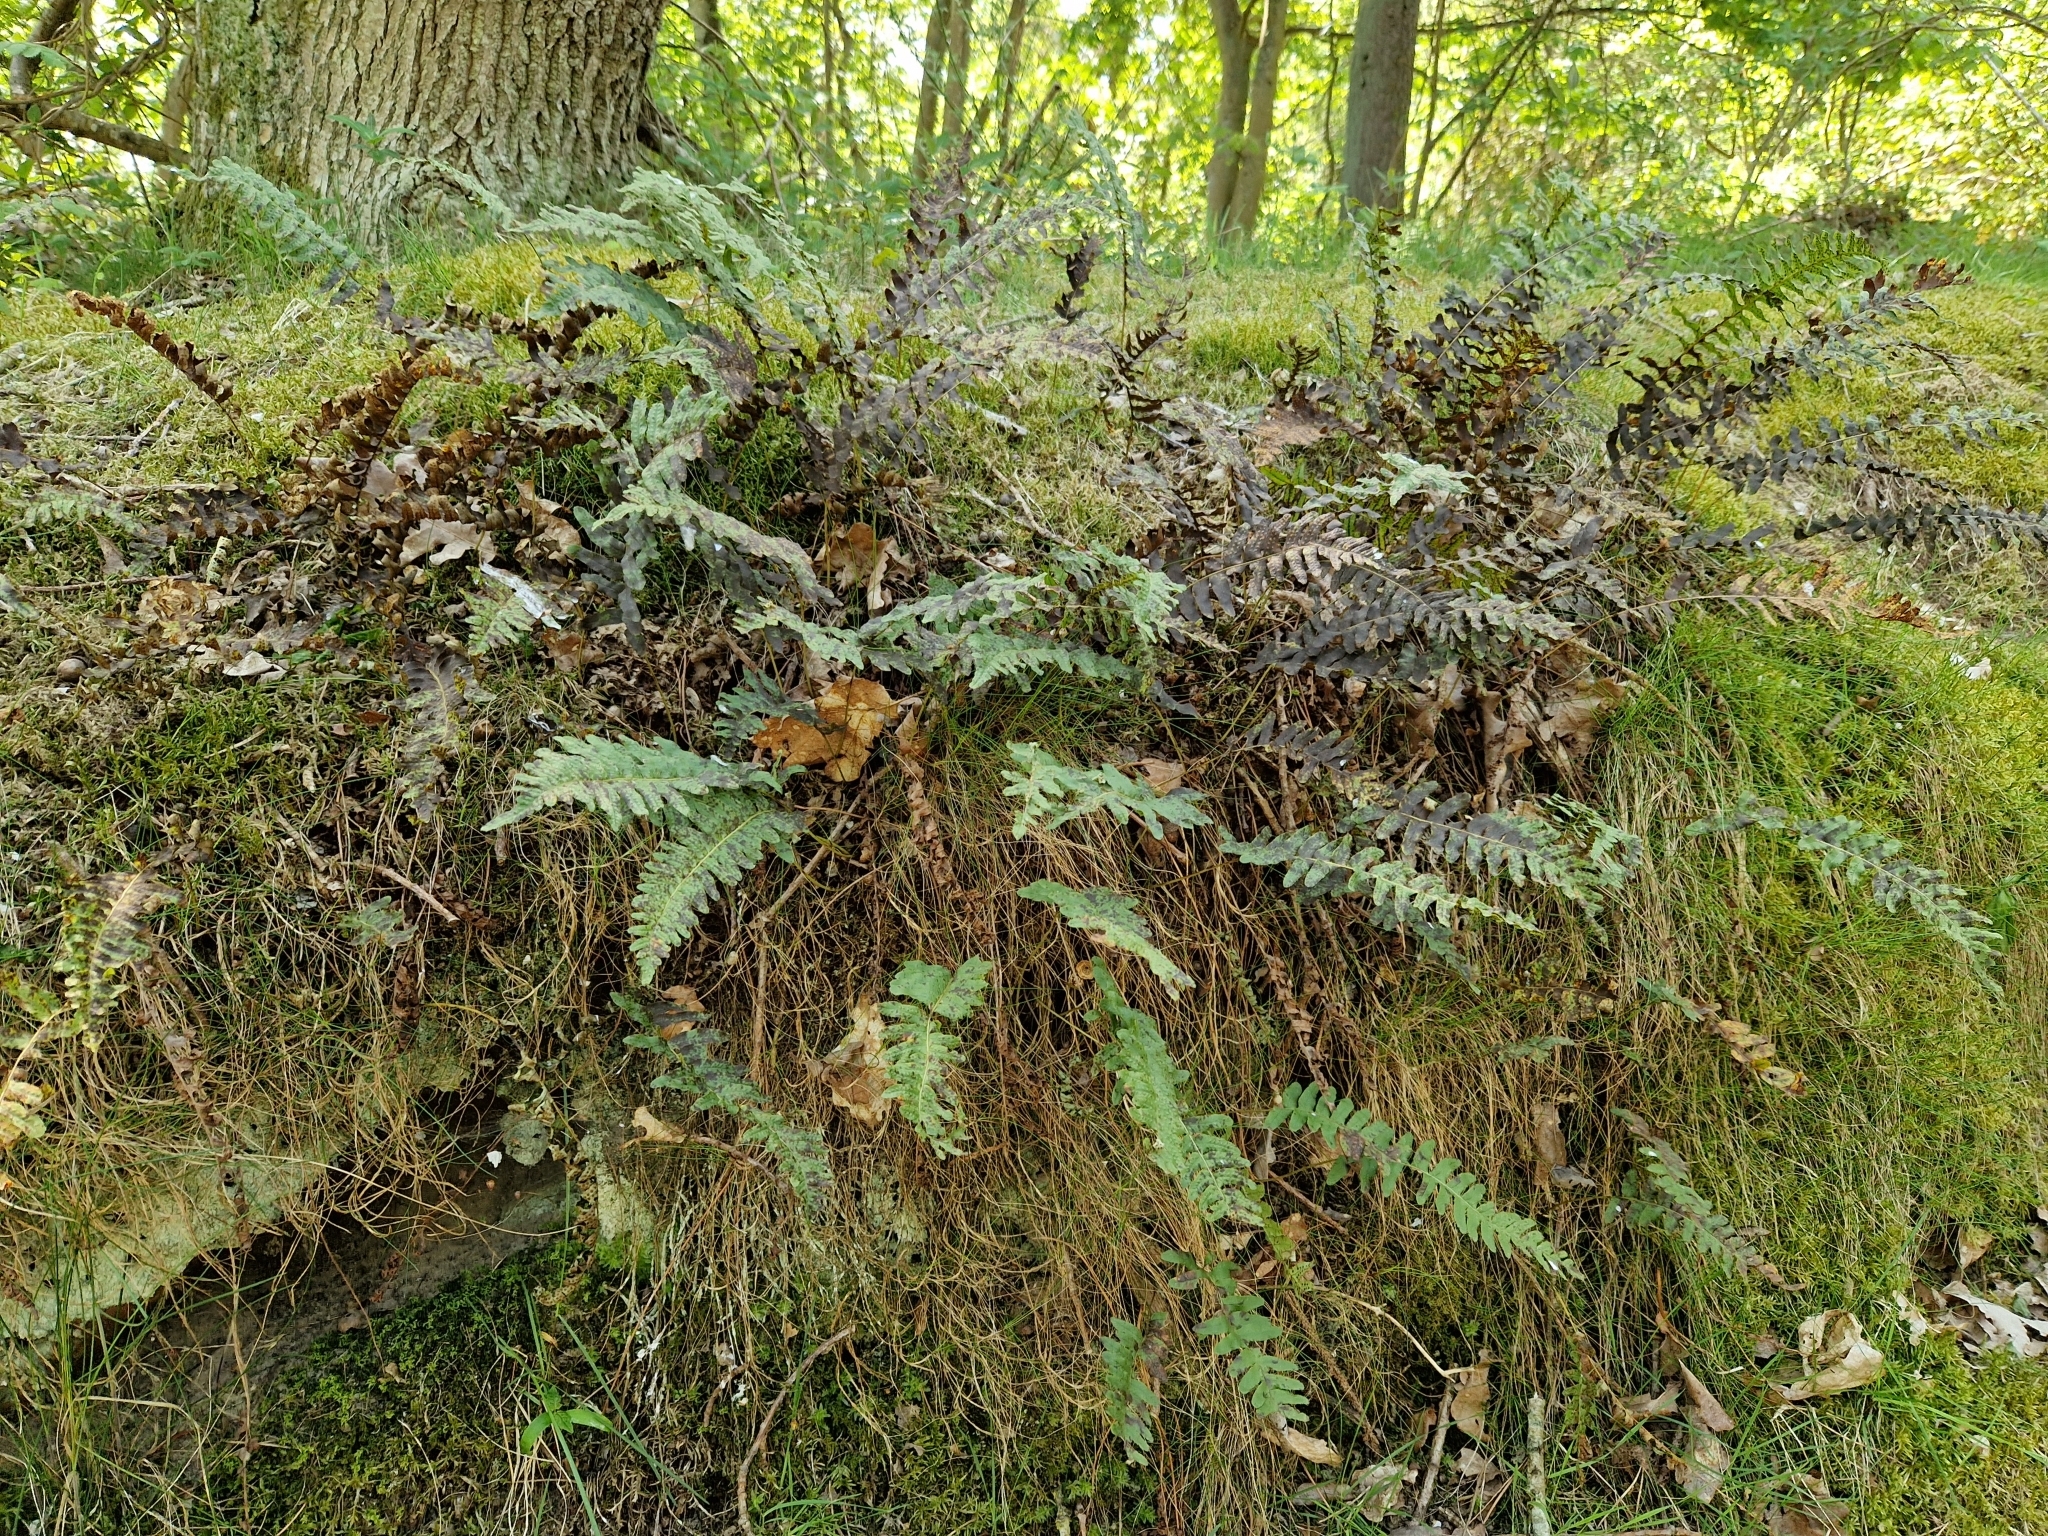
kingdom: Plantae
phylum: Tracheophyta
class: Polypodiopsida
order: Polypodiales
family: Polypodiaceae
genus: Polypodium
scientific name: Polypodium vulgare
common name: Common polypody
